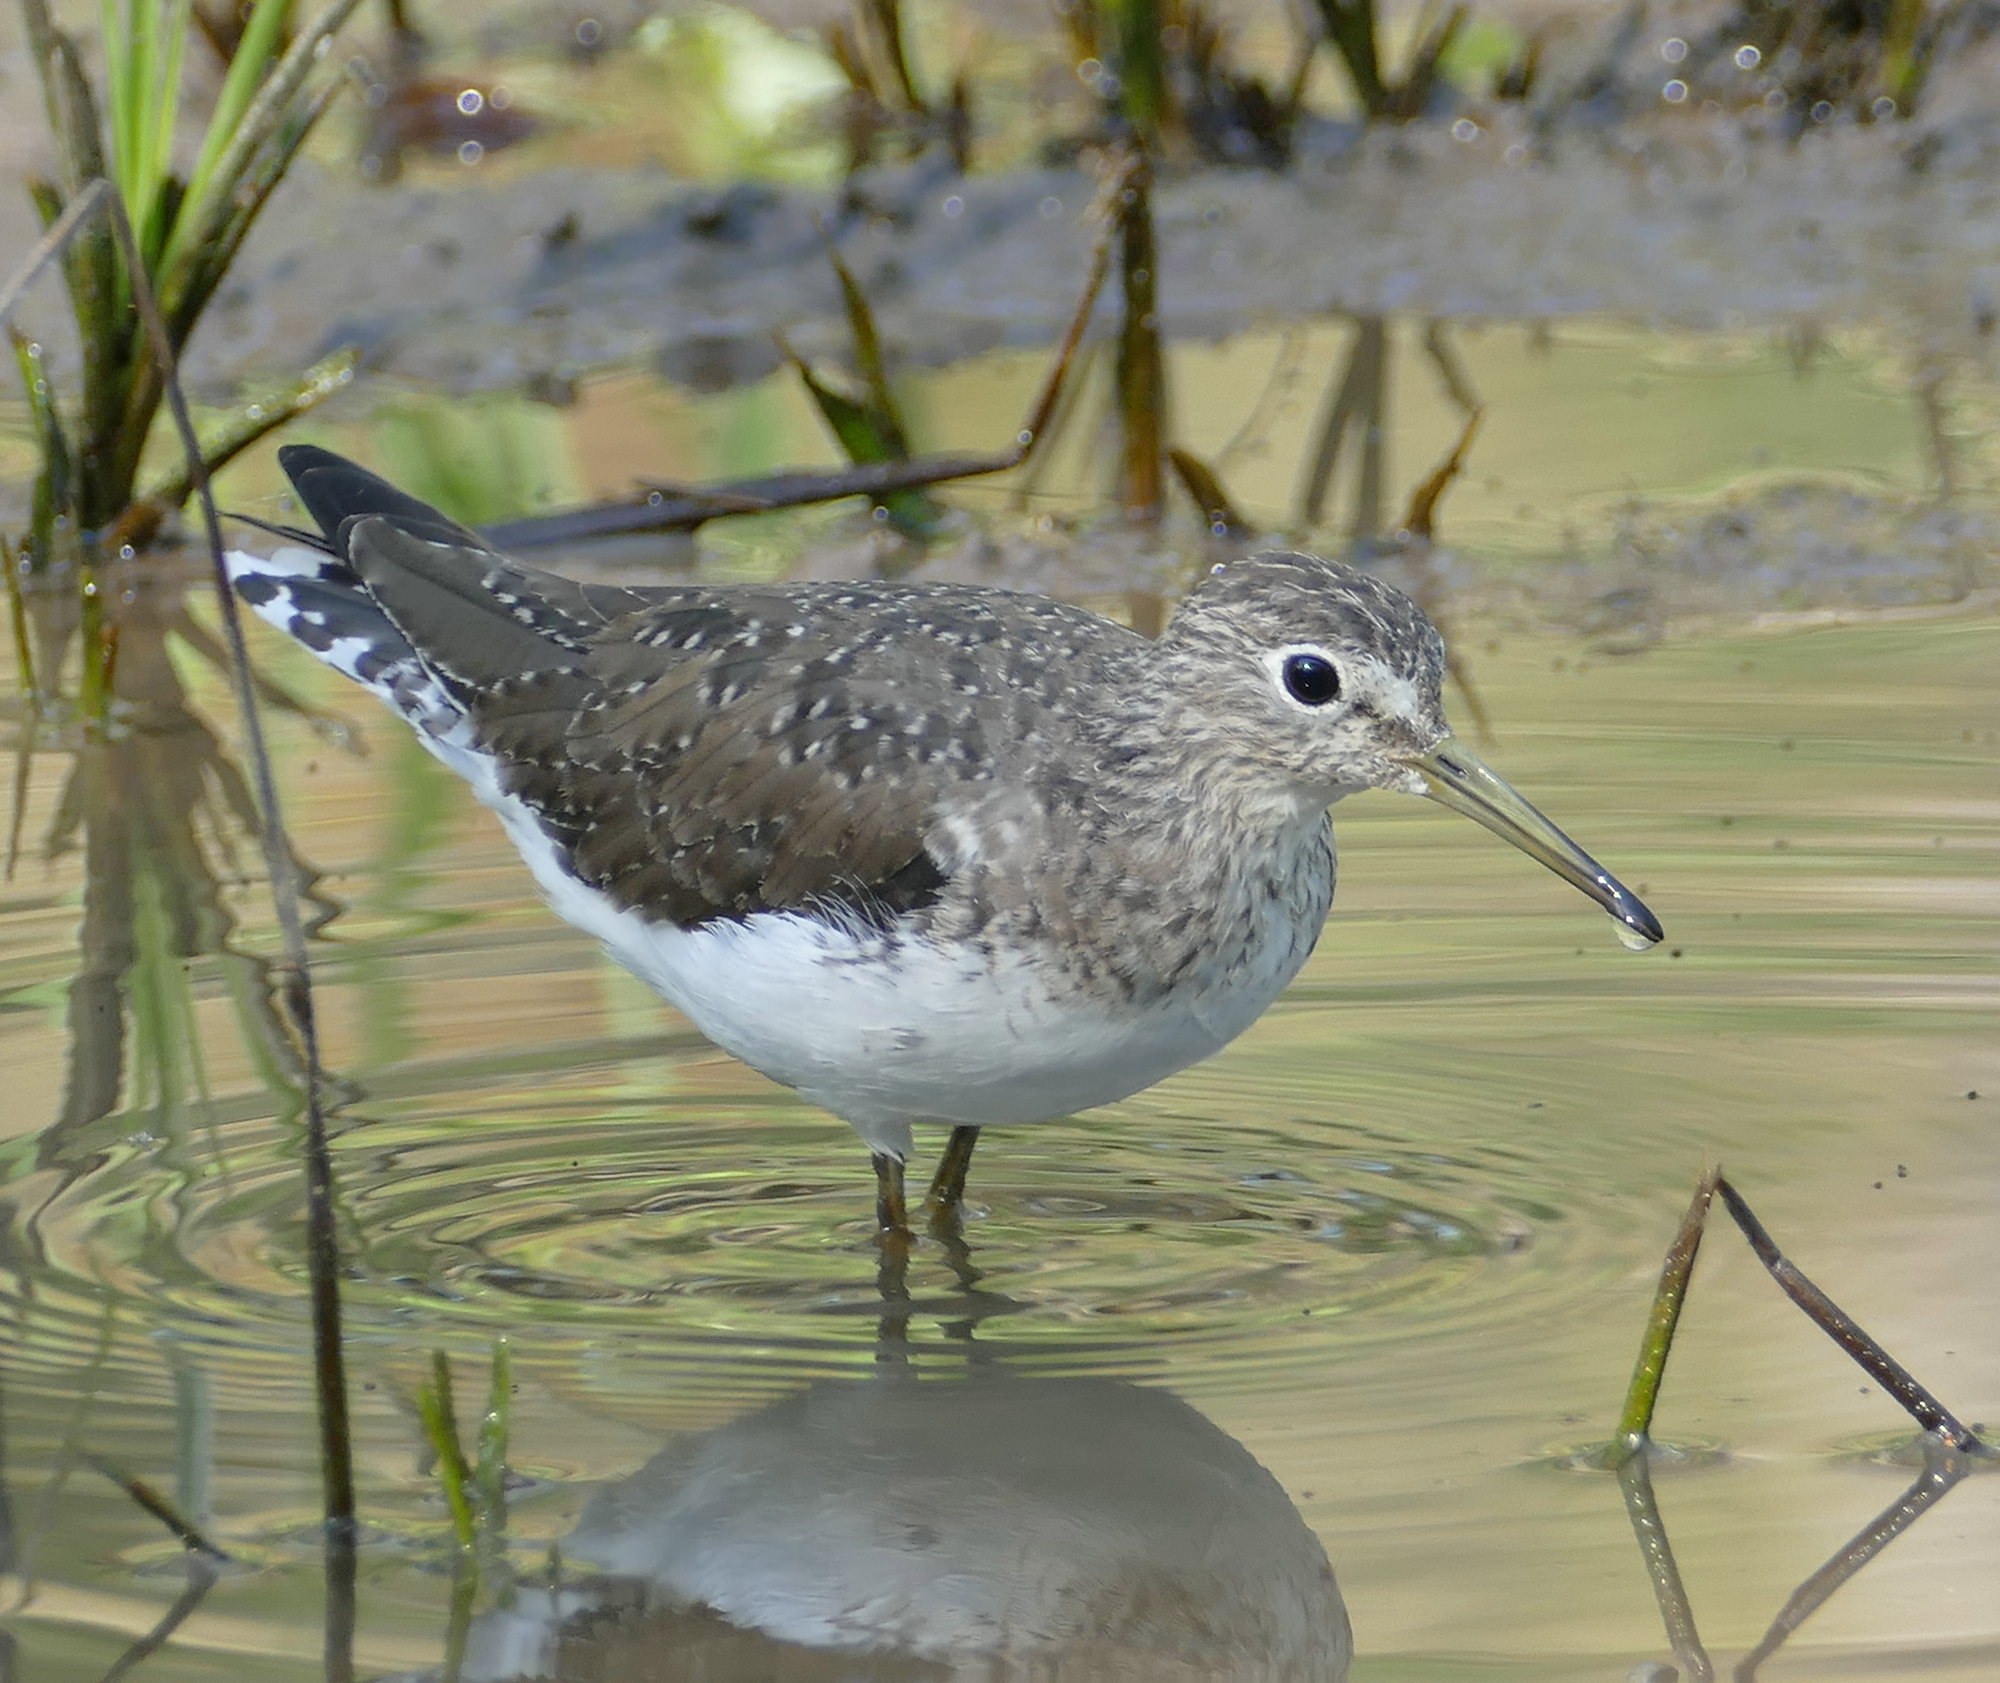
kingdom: Animalia
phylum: Chordata
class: Aves
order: Charadriiformes
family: Scolopacidae
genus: Tringa
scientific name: Tringa solitaria
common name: Solitary sandpiper
